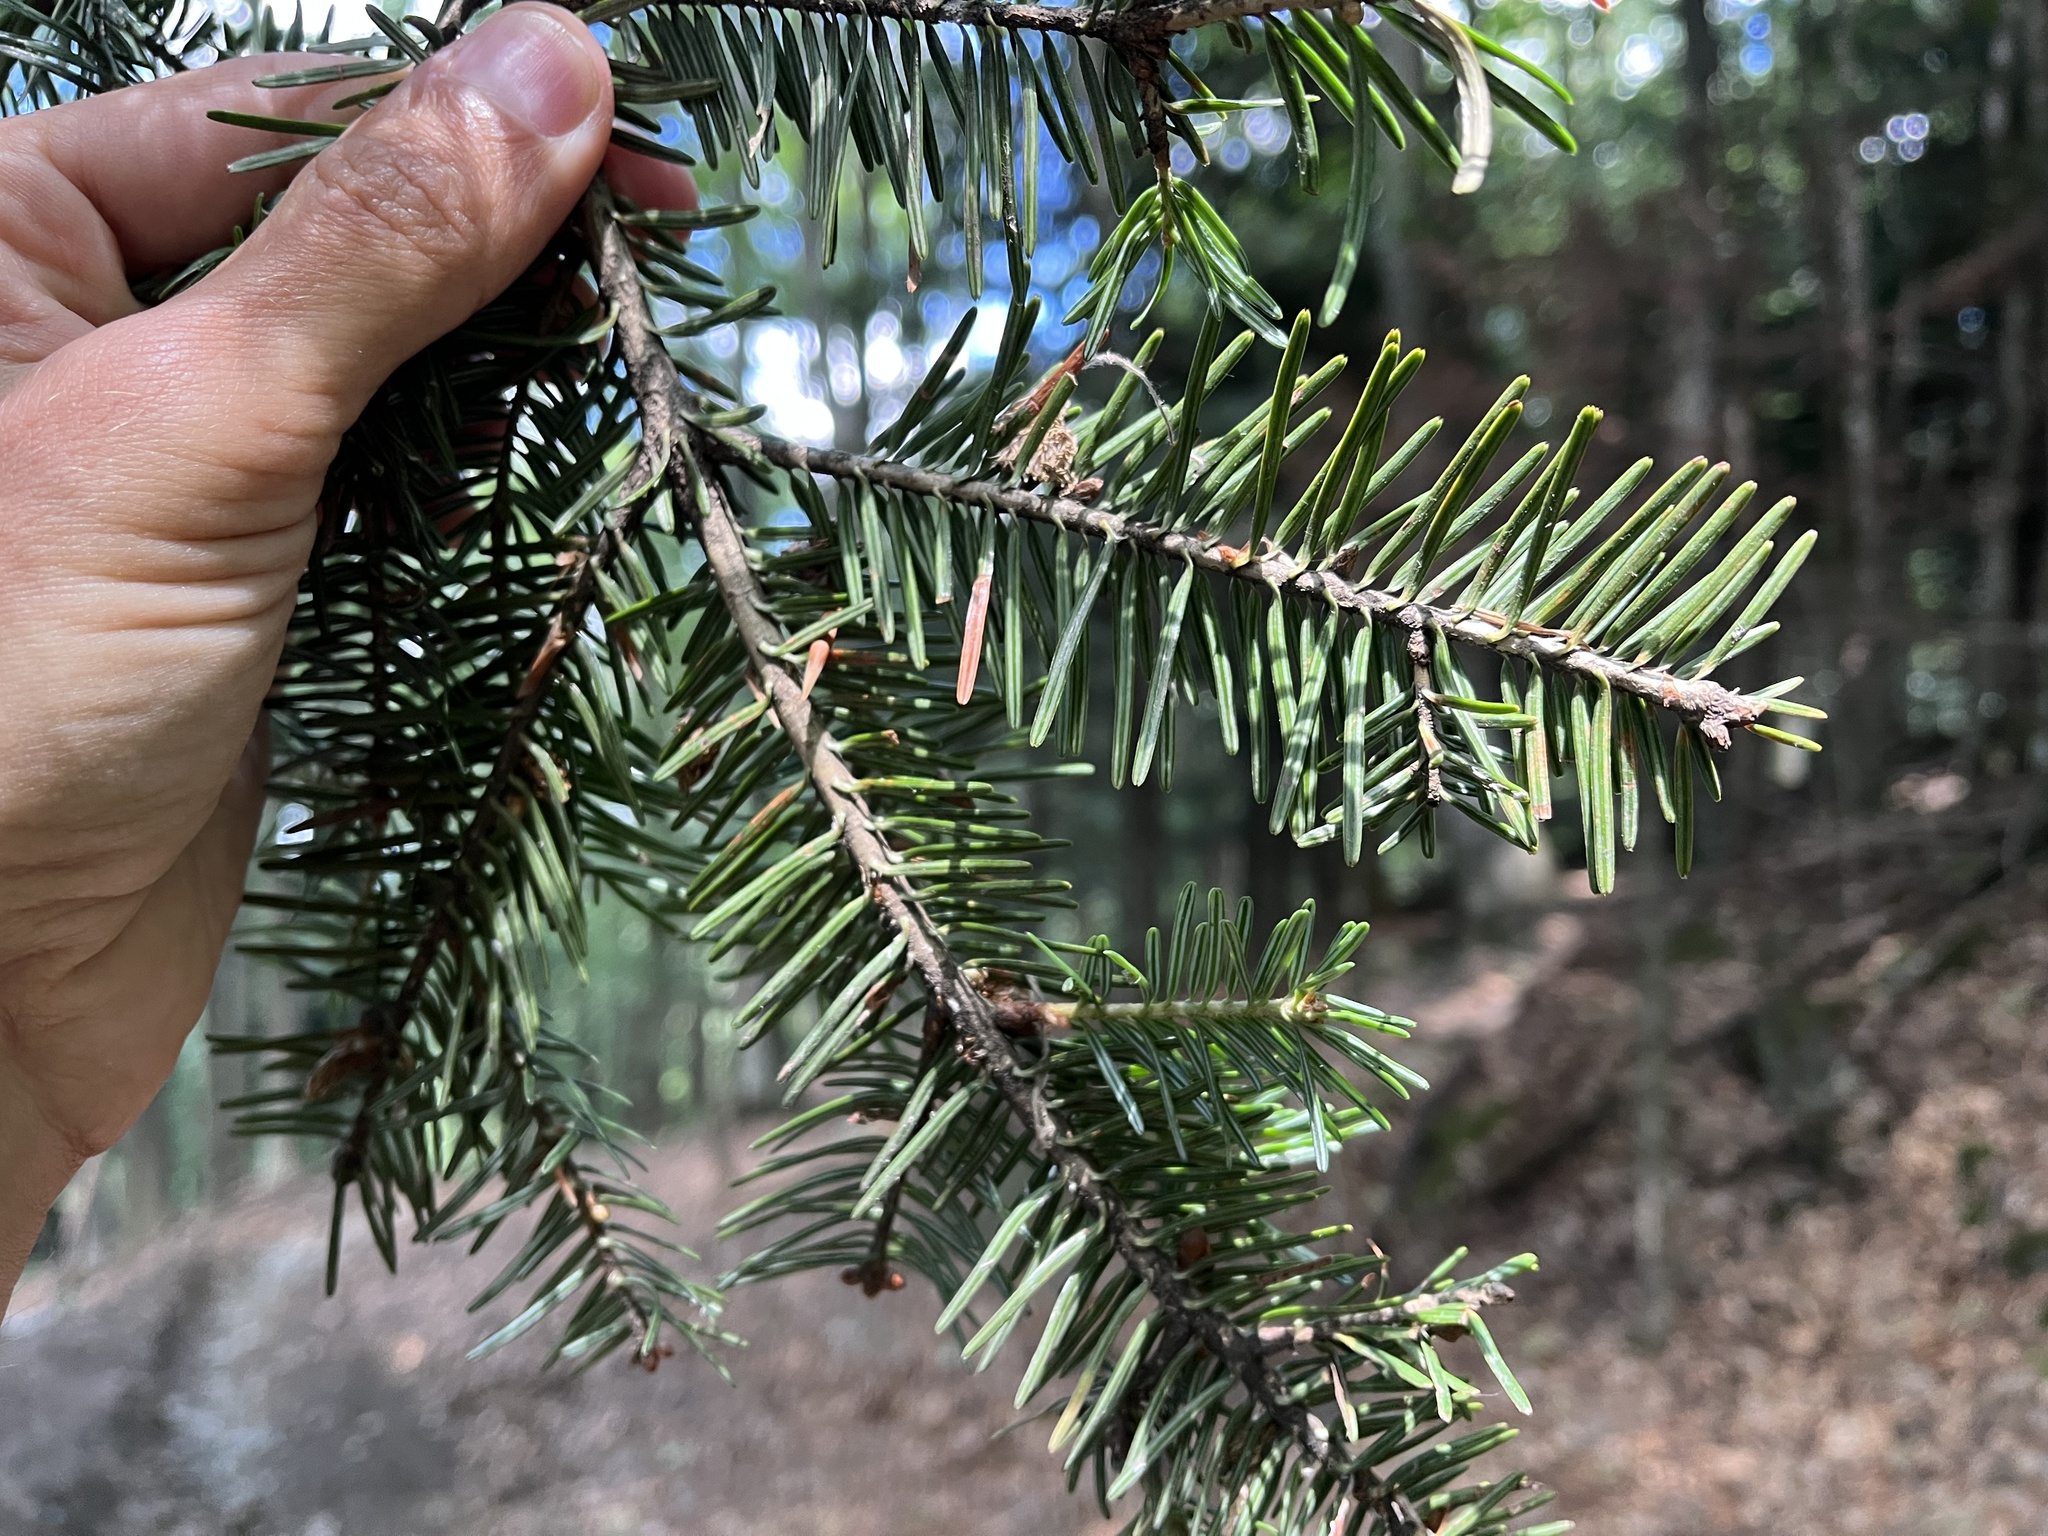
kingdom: Plantae
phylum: Tracheophyta
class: Pinopsida
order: Pinales
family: Pinaceae
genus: Abies
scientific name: Abies alba
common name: Silver fir
